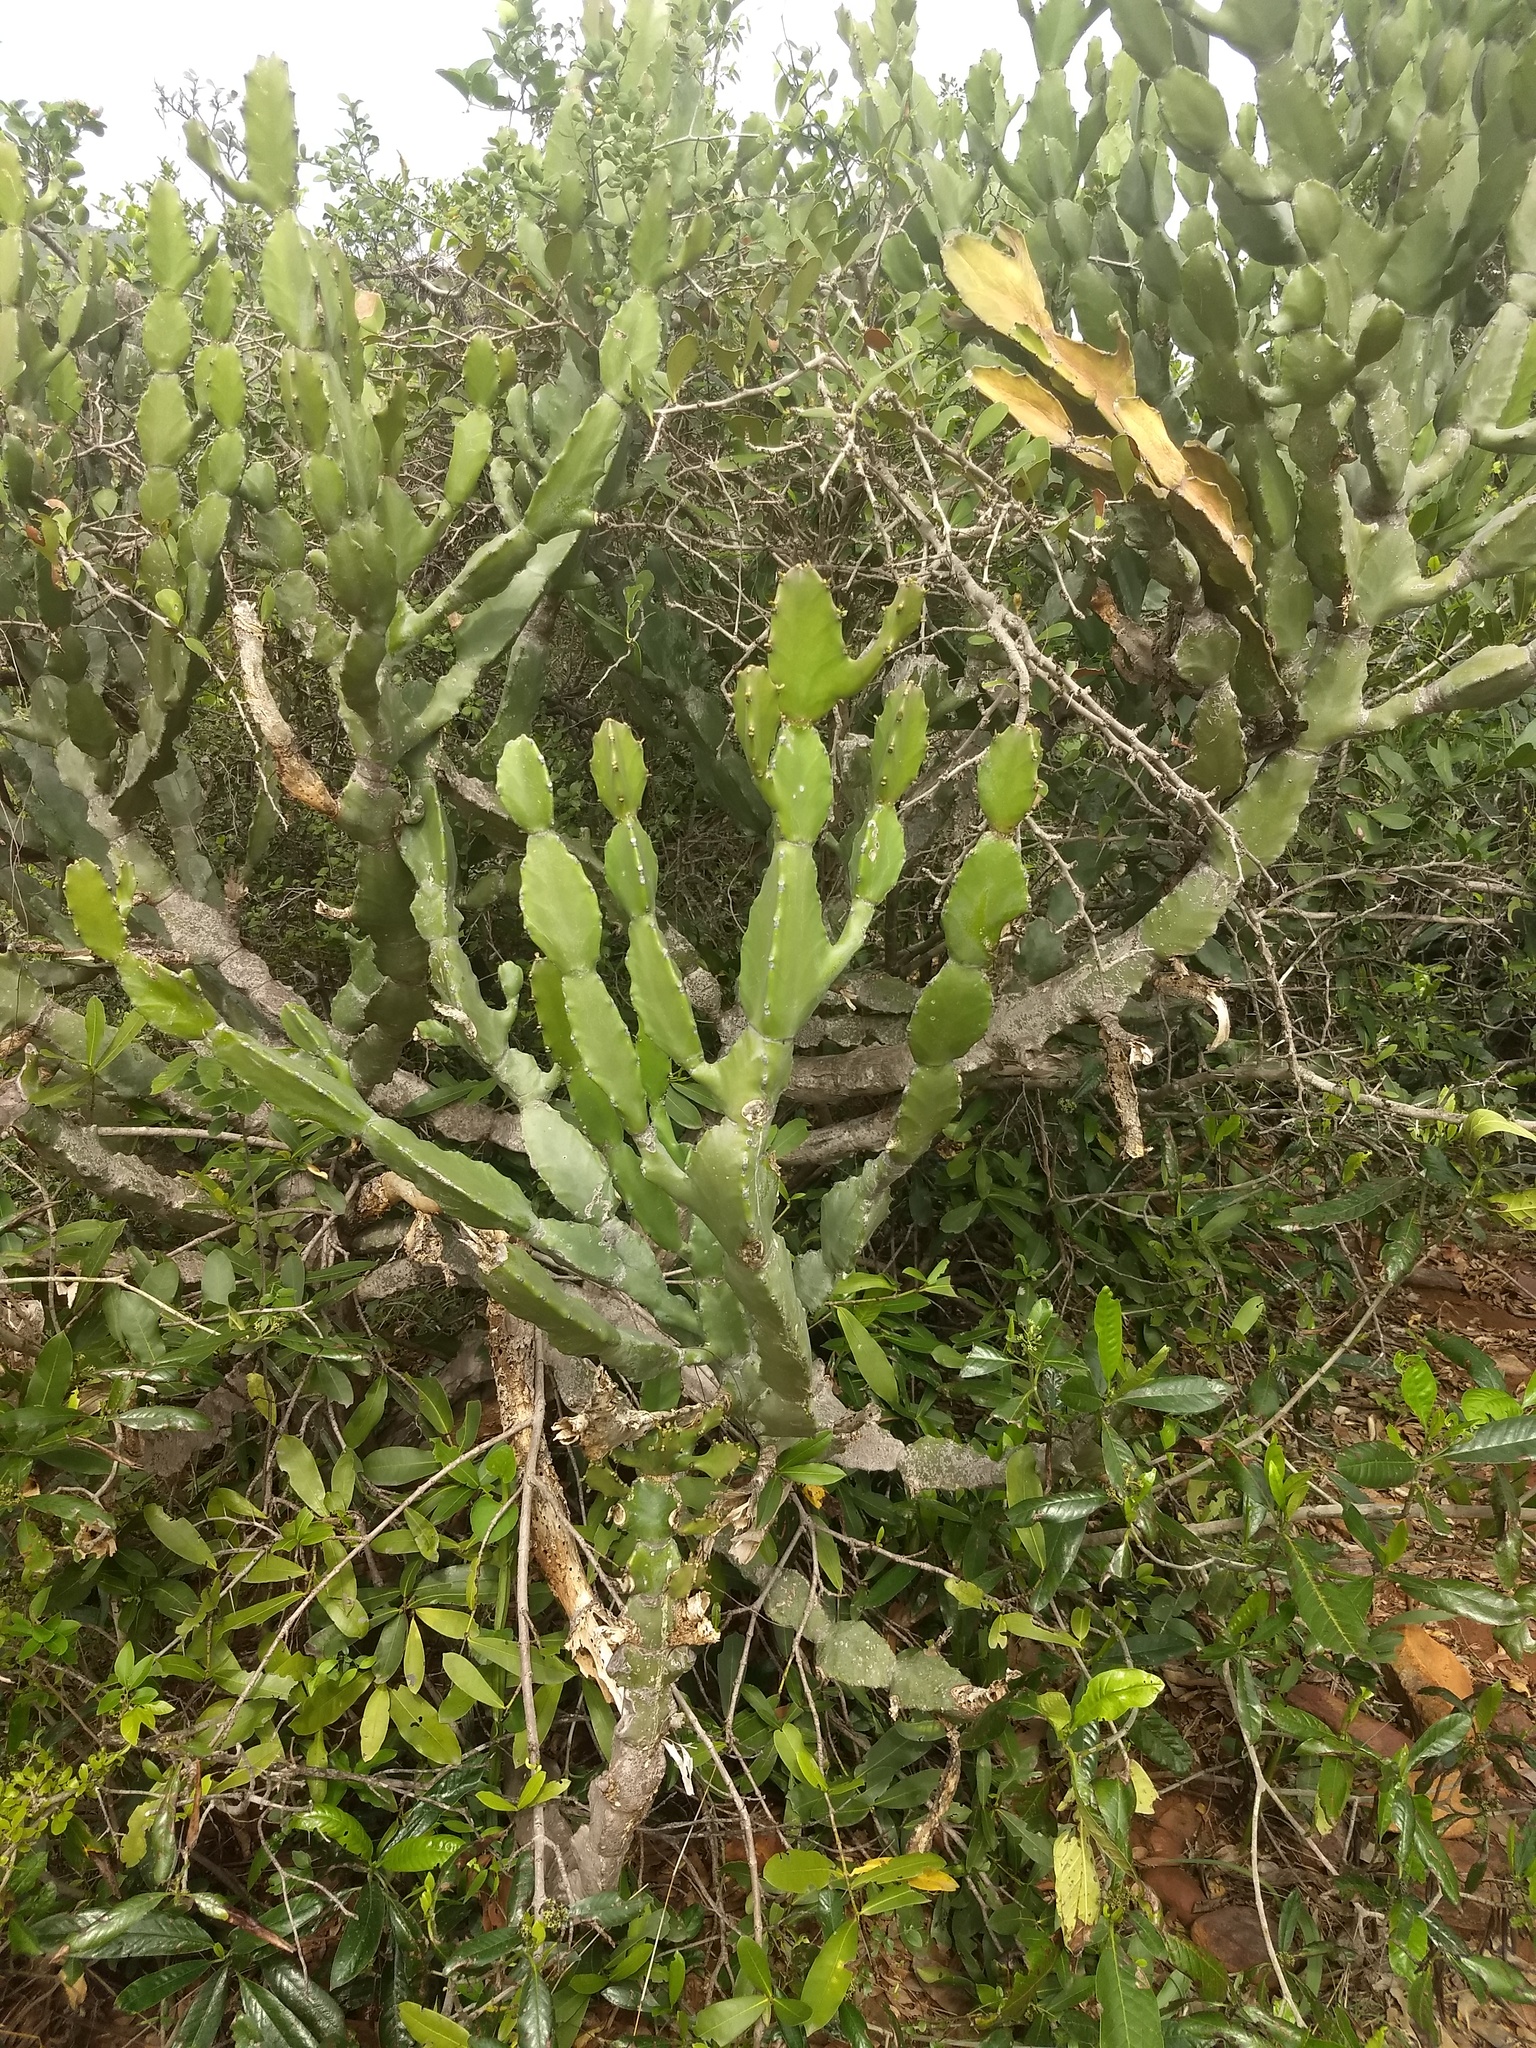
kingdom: Plantae
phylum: Tracheophyta
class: Magnoliopsida
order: Malpighiales
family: Euphorbiaceae
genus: Euphorbia
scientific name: Euphorbia antiquorum
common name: Malayan spurge tree
